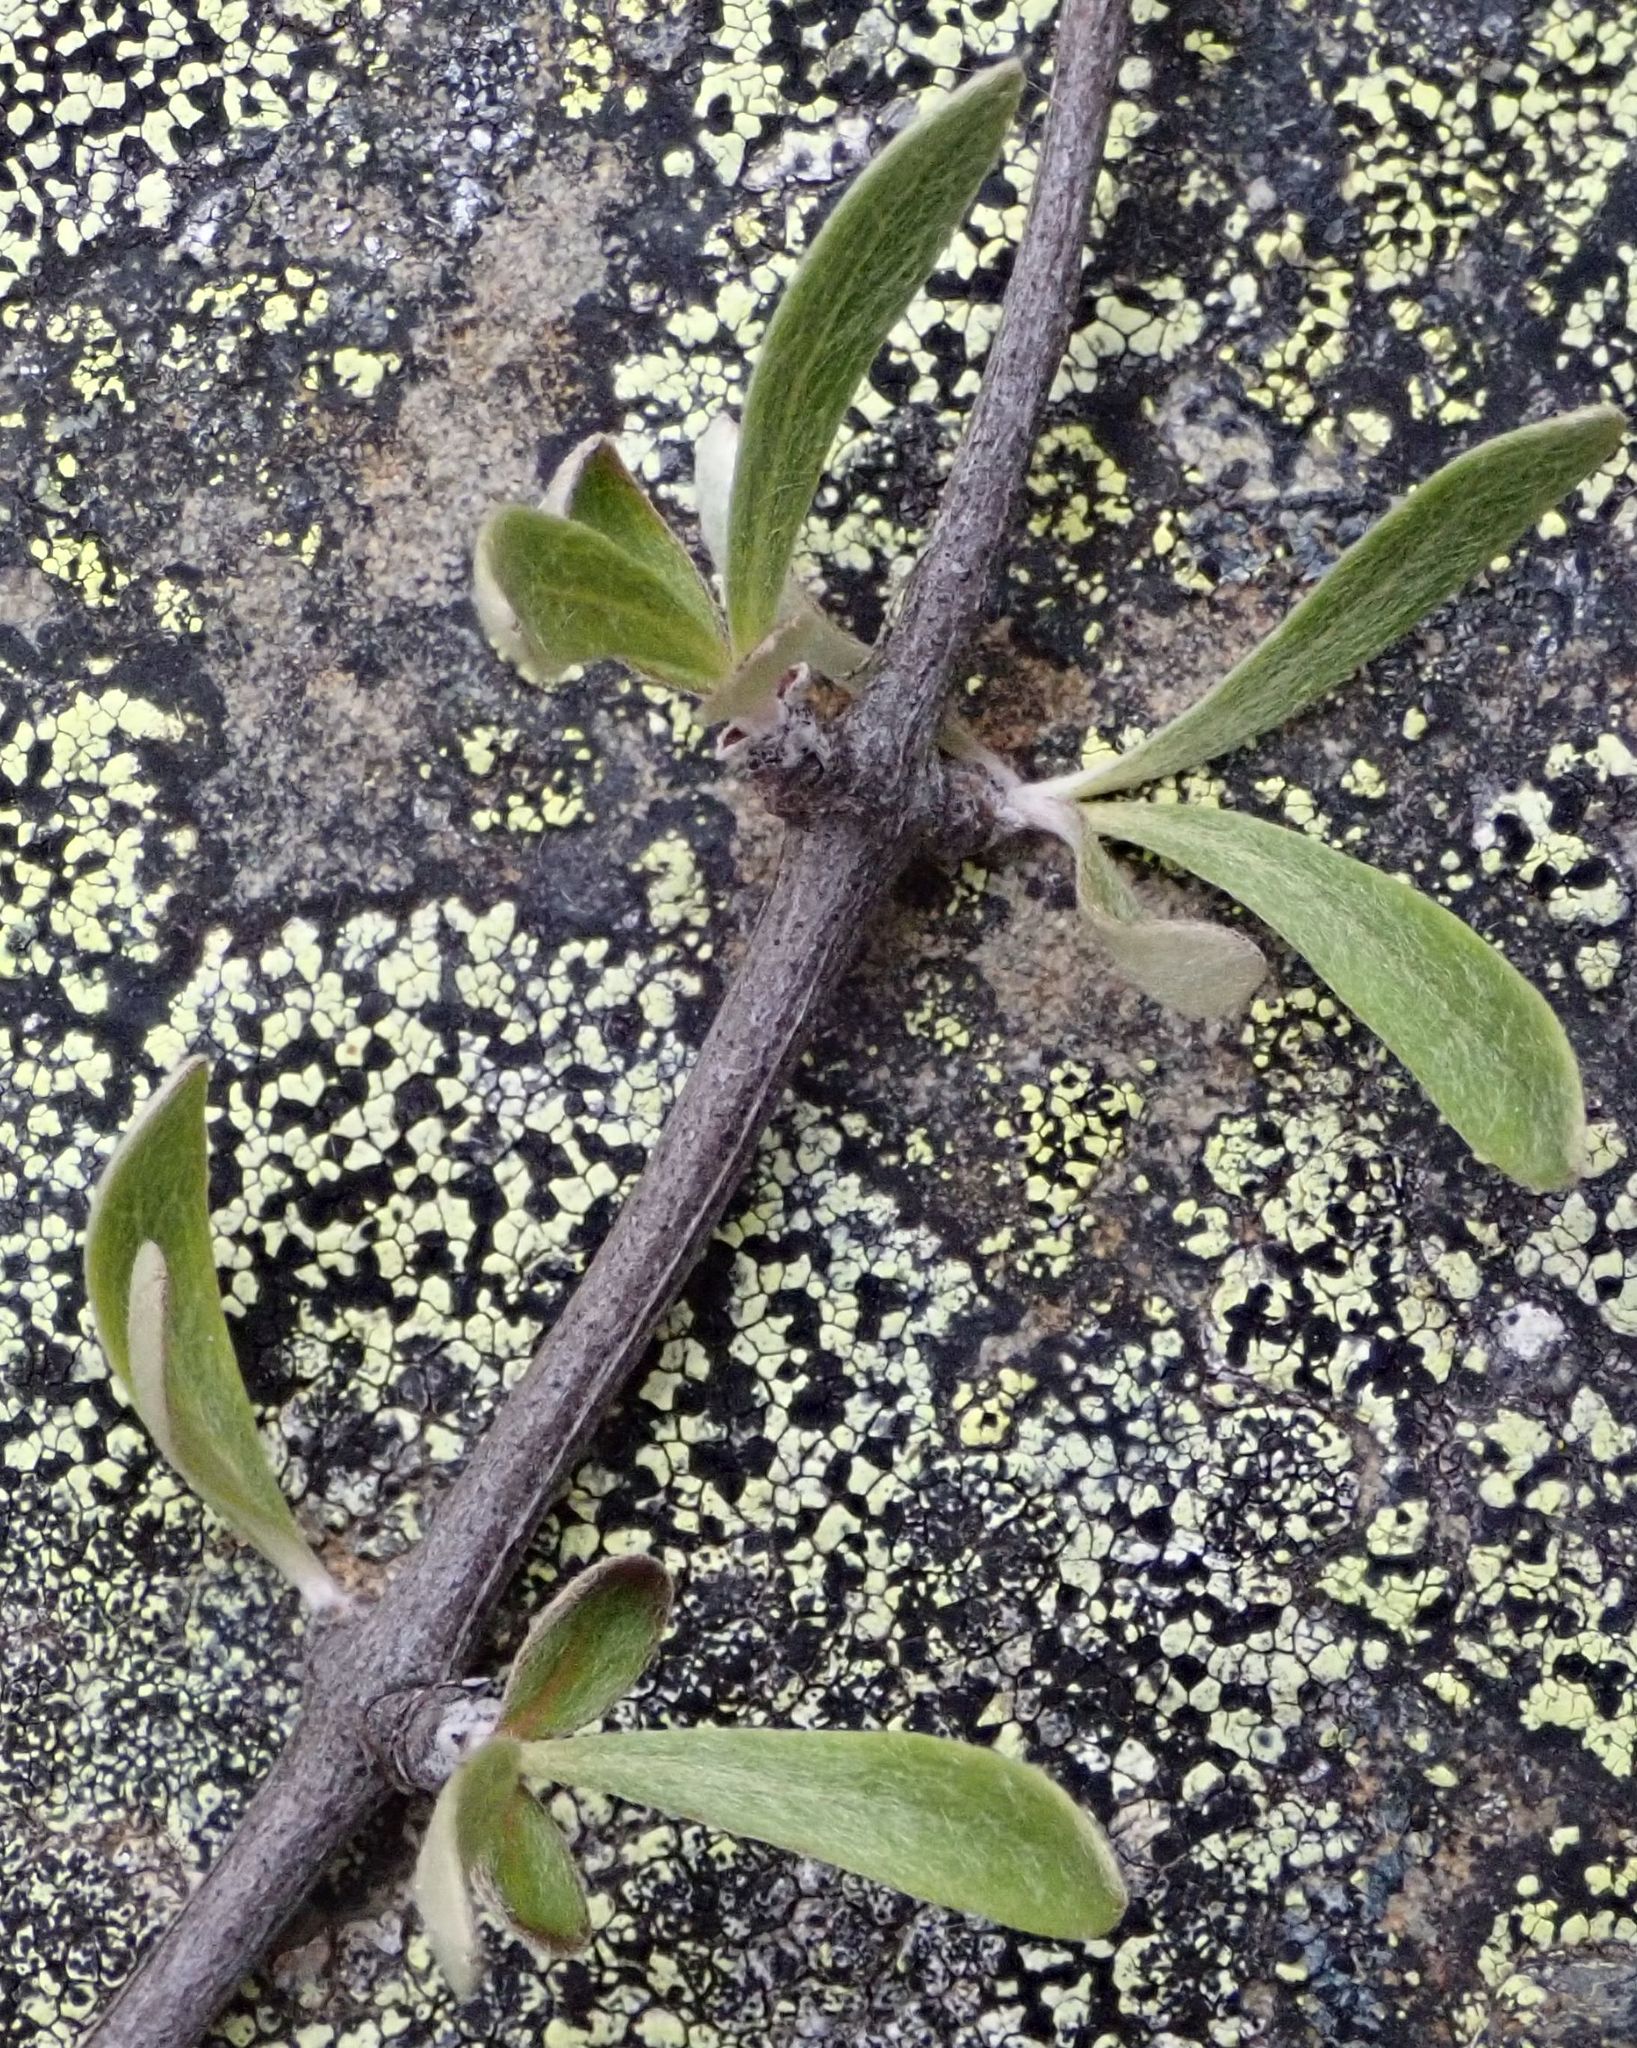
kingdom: Plantae
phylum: Tracheophyta
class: Magnoliopsida
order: Asterales
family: Asteraceae
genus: Olearia
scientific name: Olearia odorata
